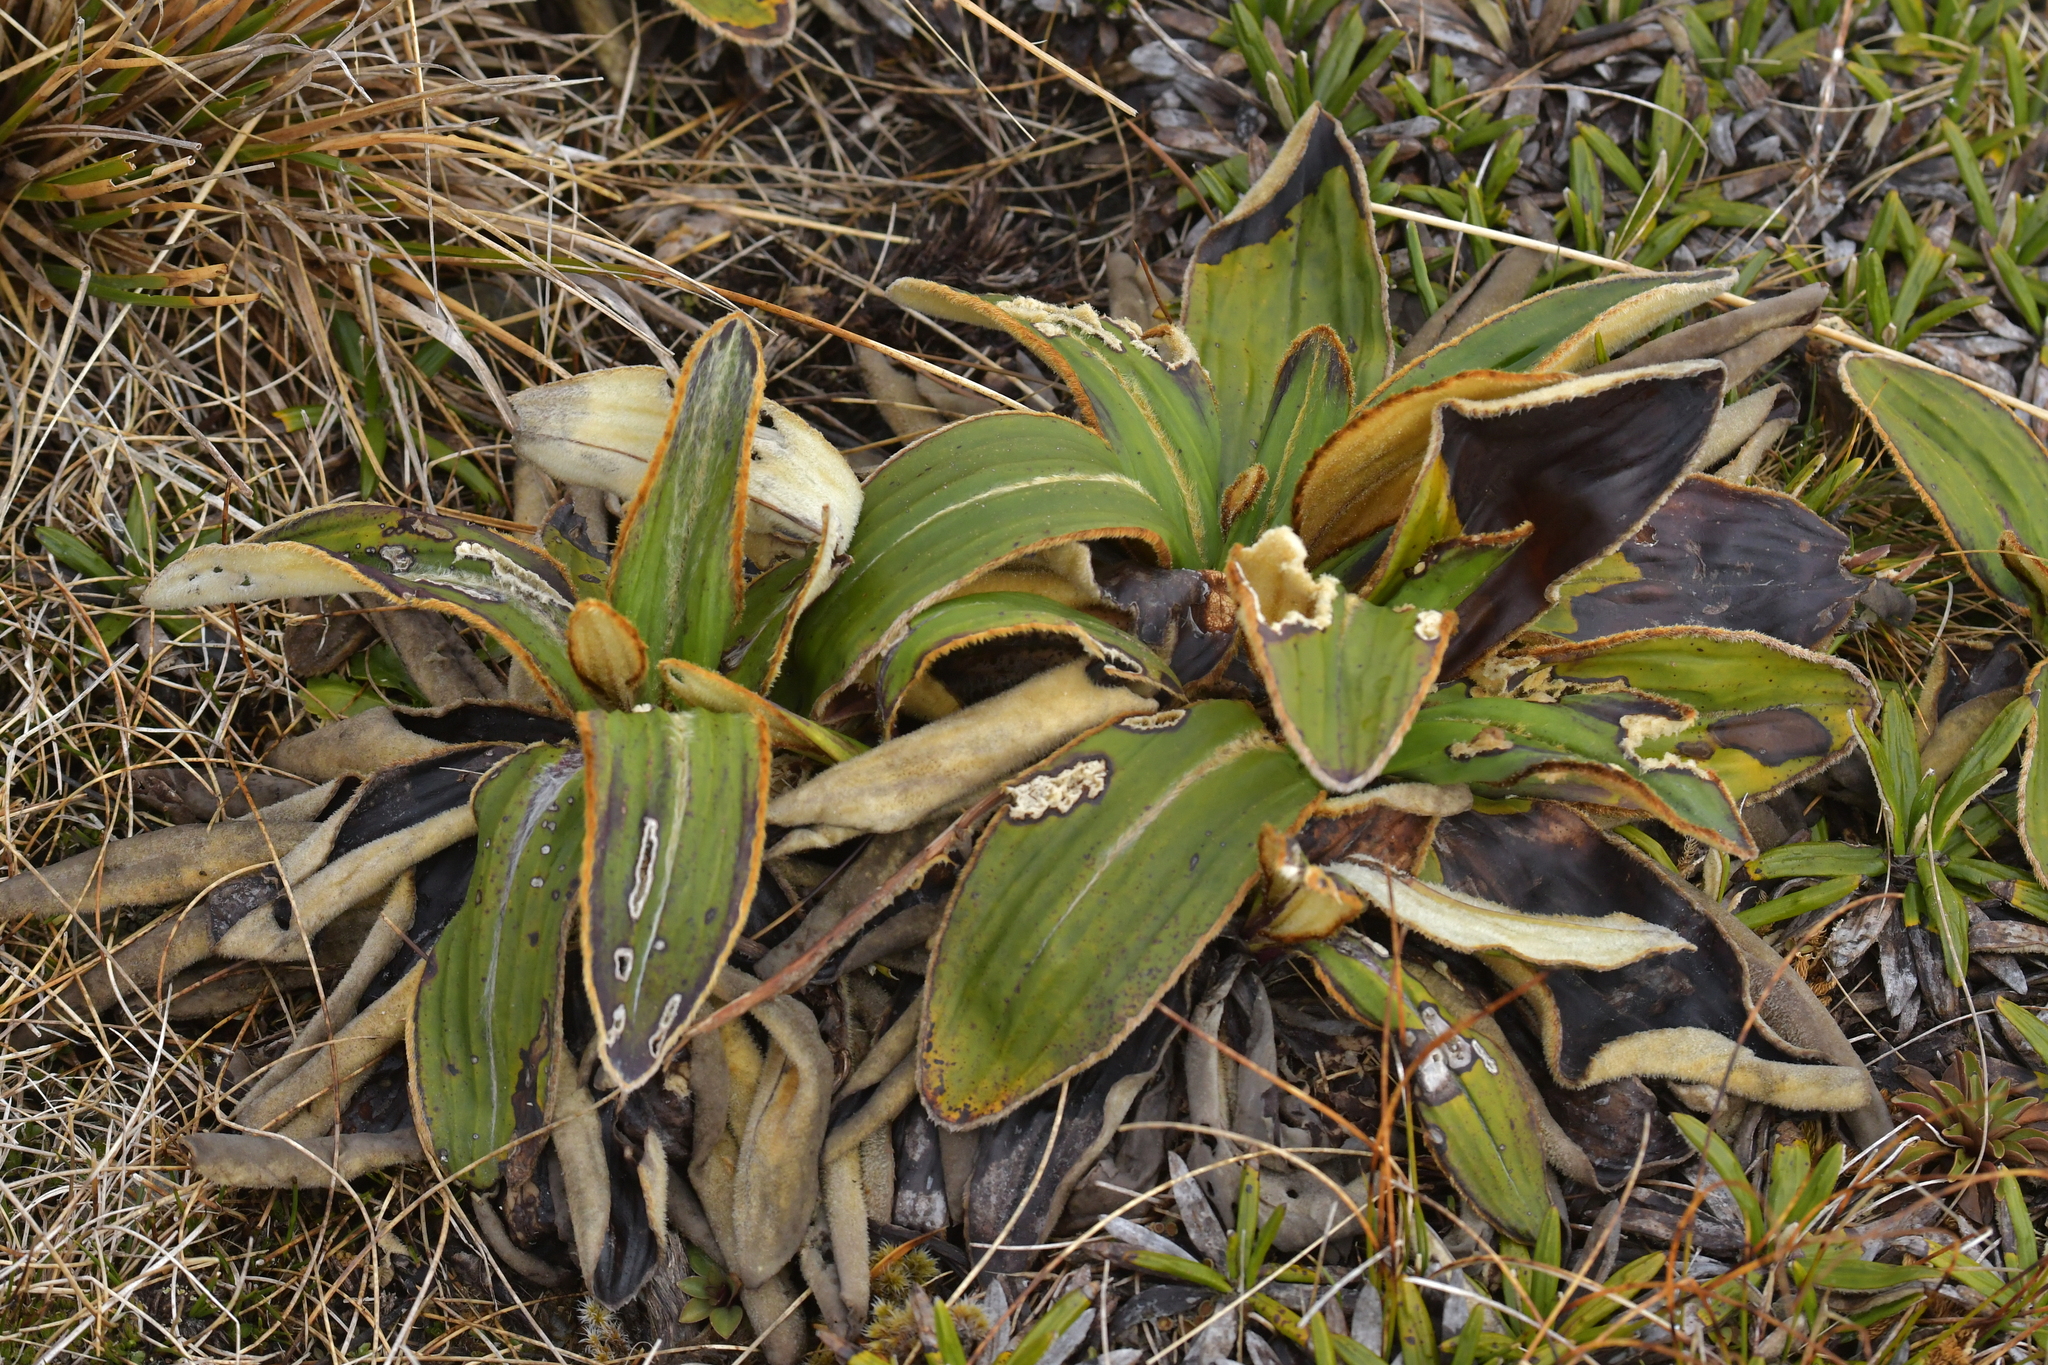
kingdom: Plantae
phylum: Tracheophyta
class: Magnoliopsida
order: Asterales
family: Asteraceae
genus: Celmisia
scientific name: Celmisia traversii
